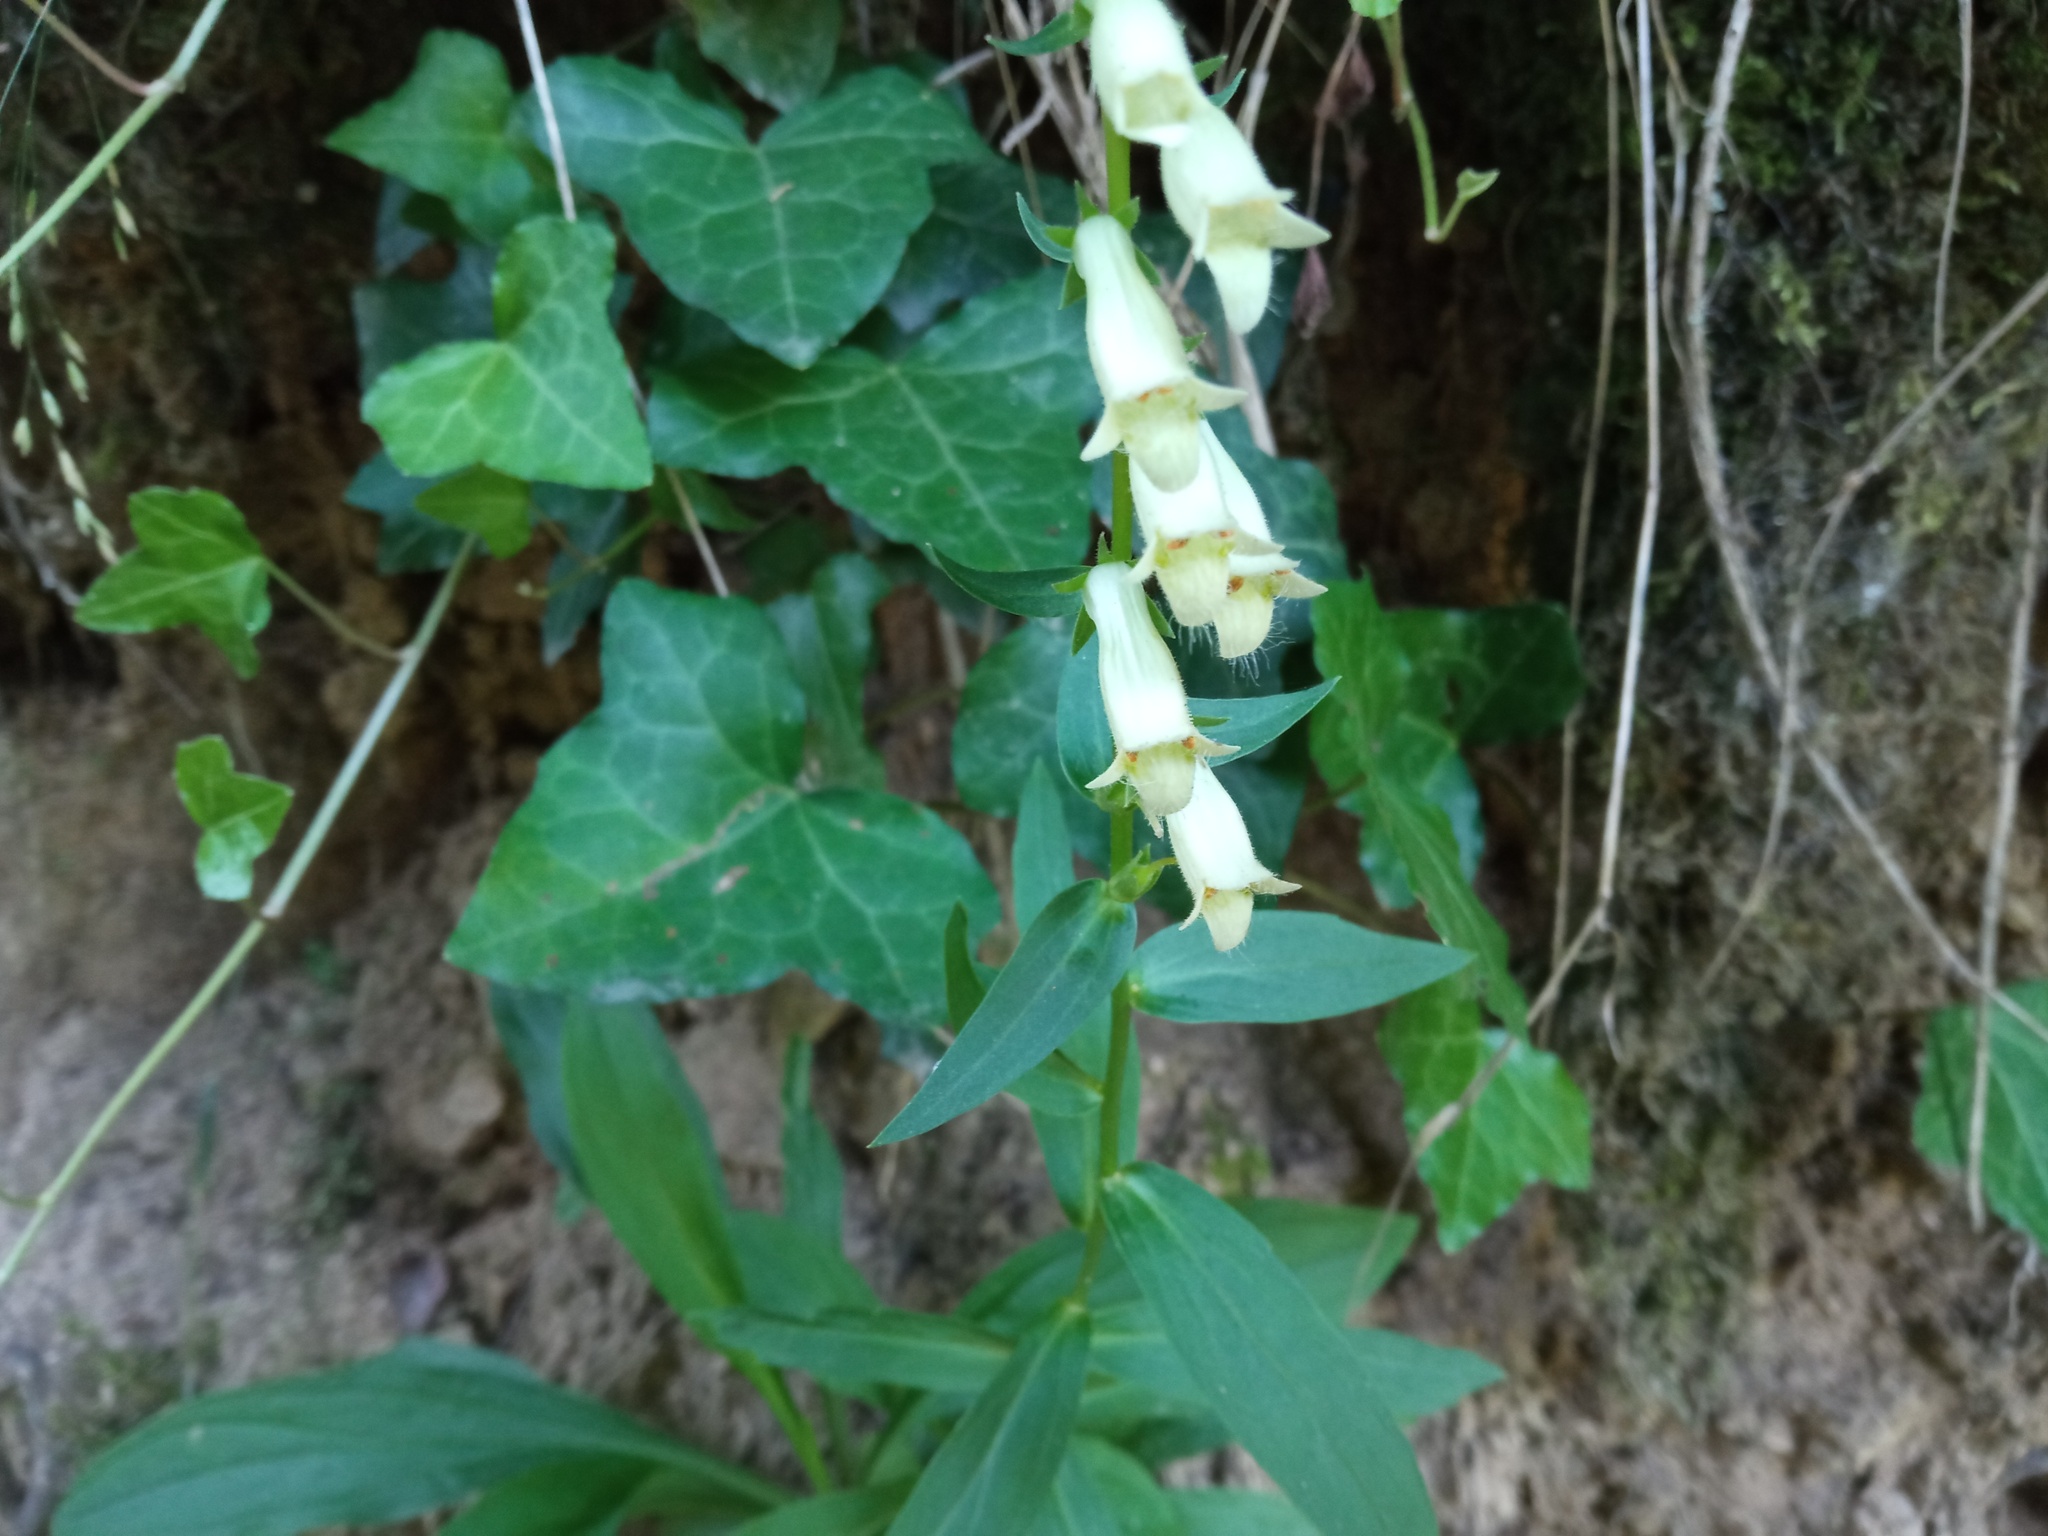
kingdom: Plantae
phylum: Tracheophyta
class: Magnoliopsida
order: Lamiales
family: Plantaginaceae
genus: Digitalis
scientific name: Digitalis lutea
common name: Straw foxglove
